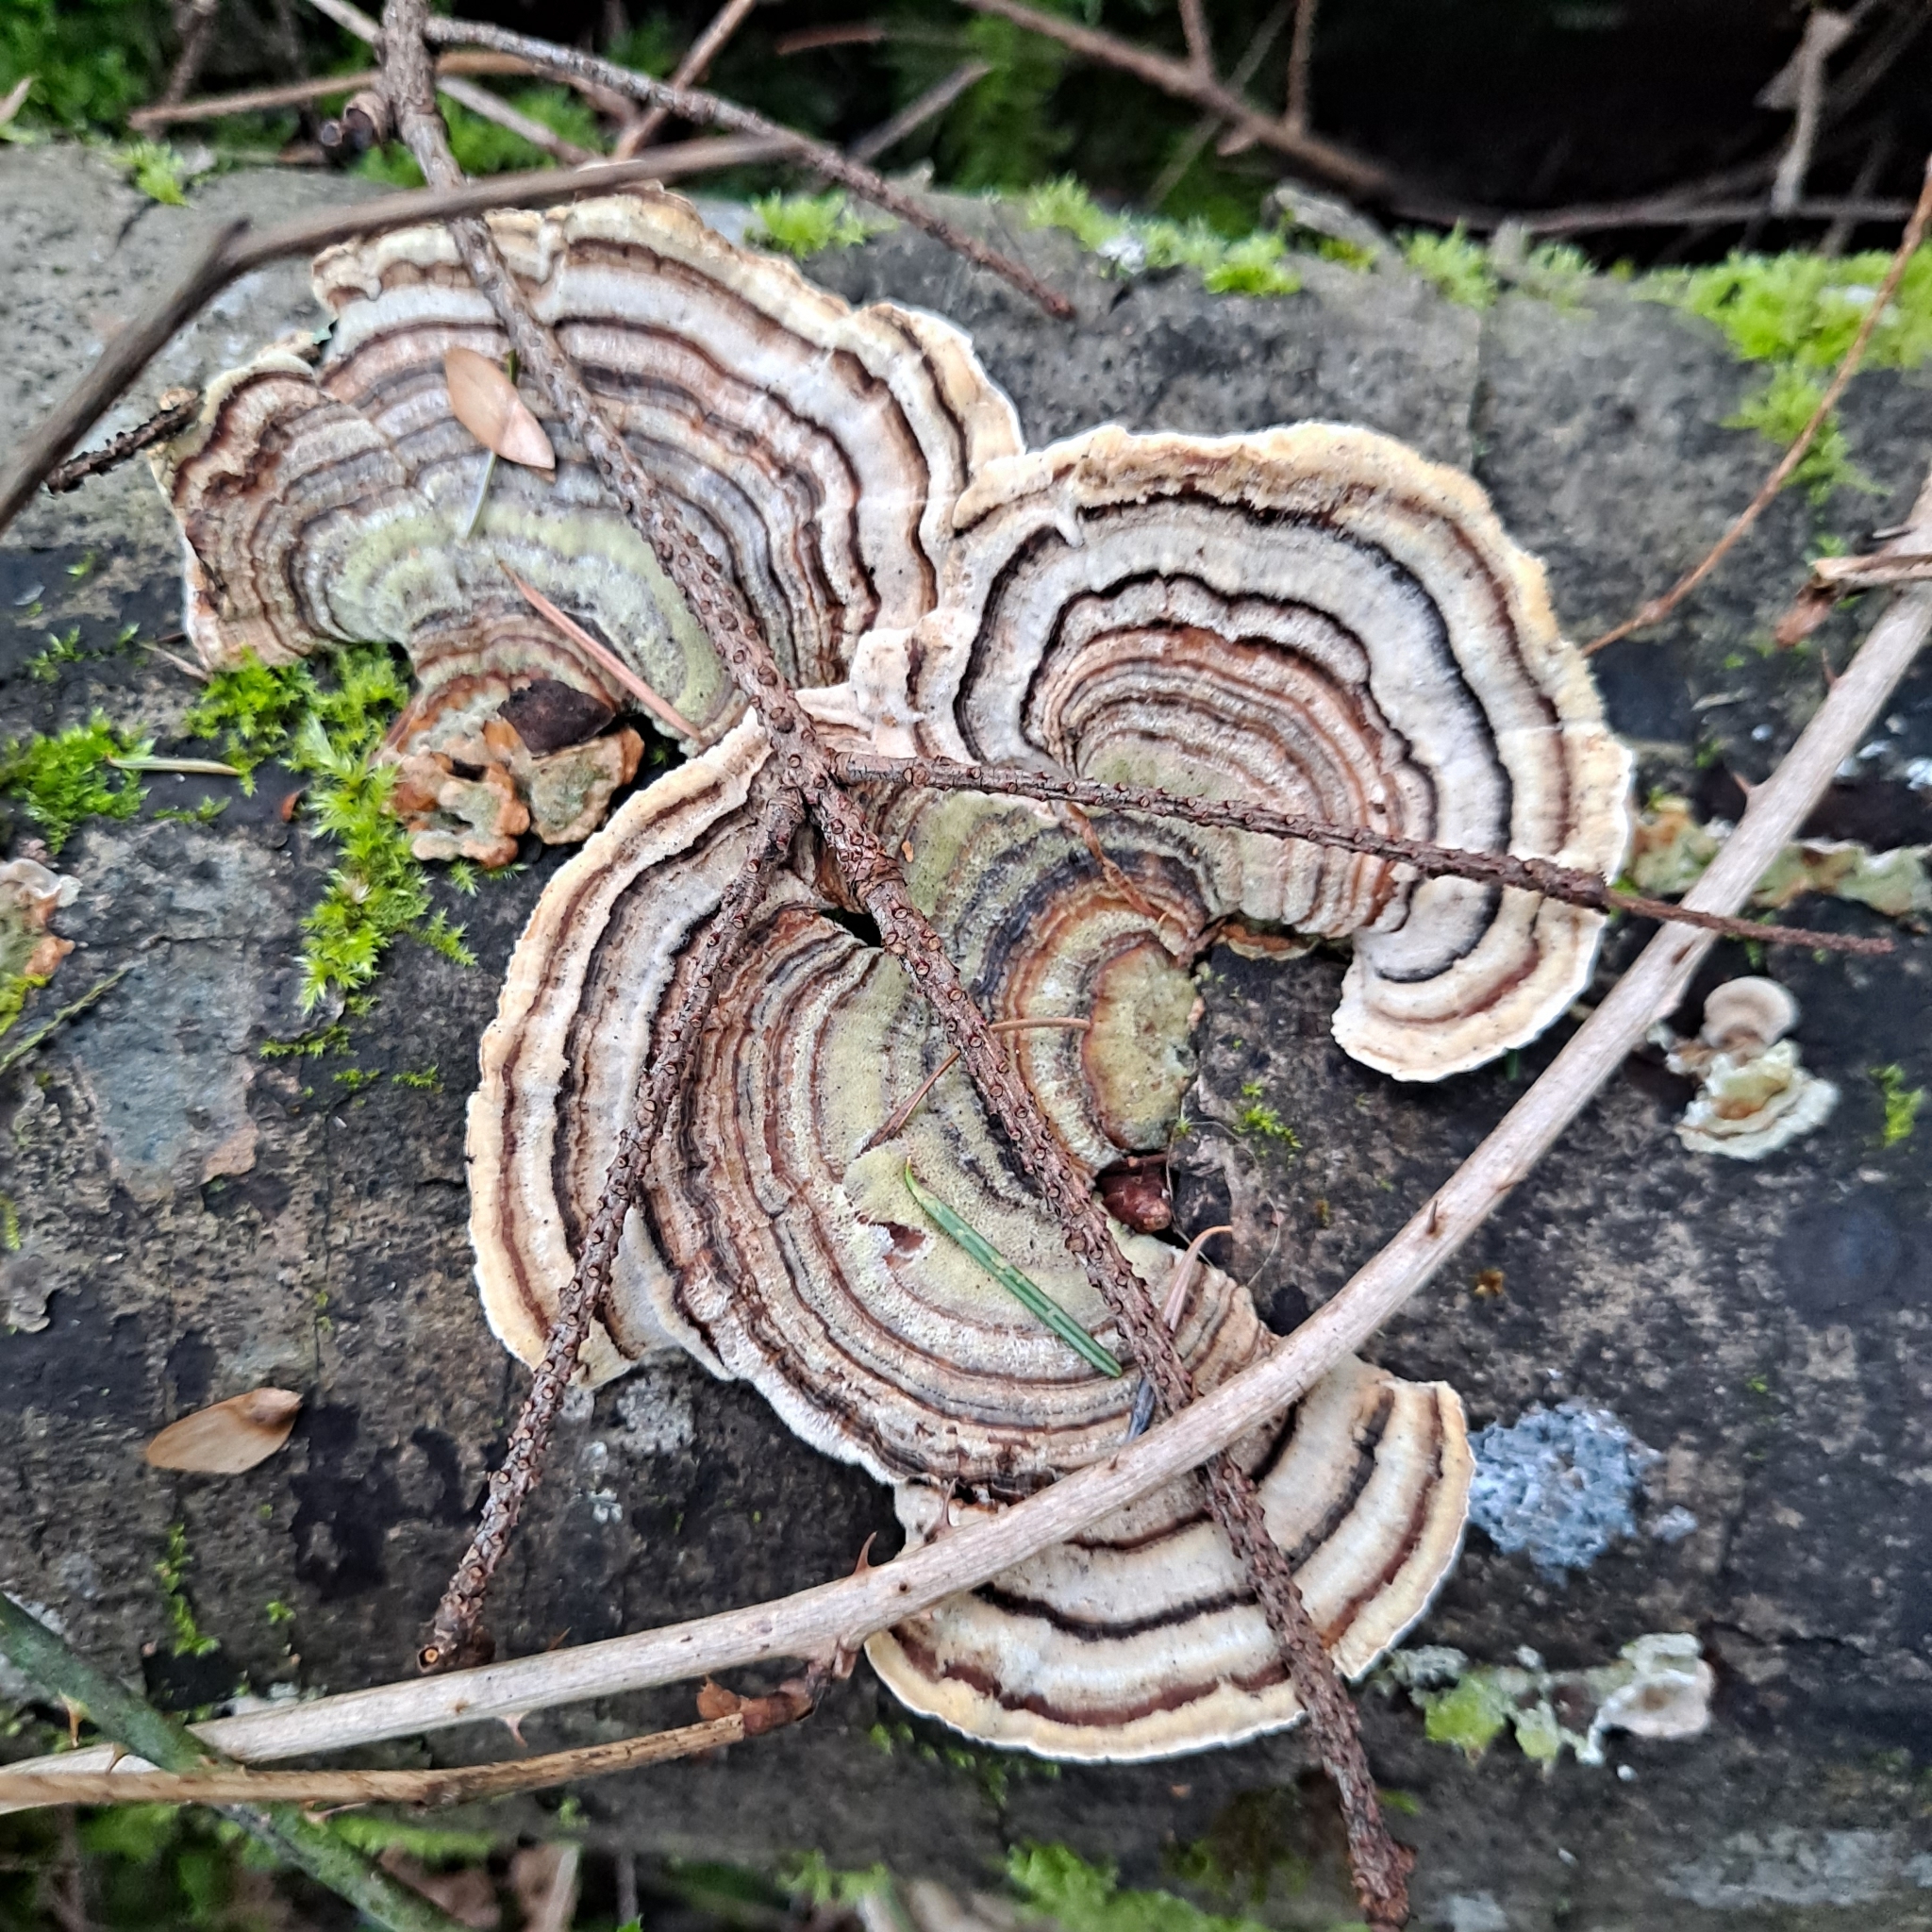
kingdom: Fungi
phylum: Basidiomycota
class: Agaricomycetes
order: Polyporales
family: Polyporaceae
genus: Trametes
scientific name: Trametes versicolor
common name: Turkeytail
